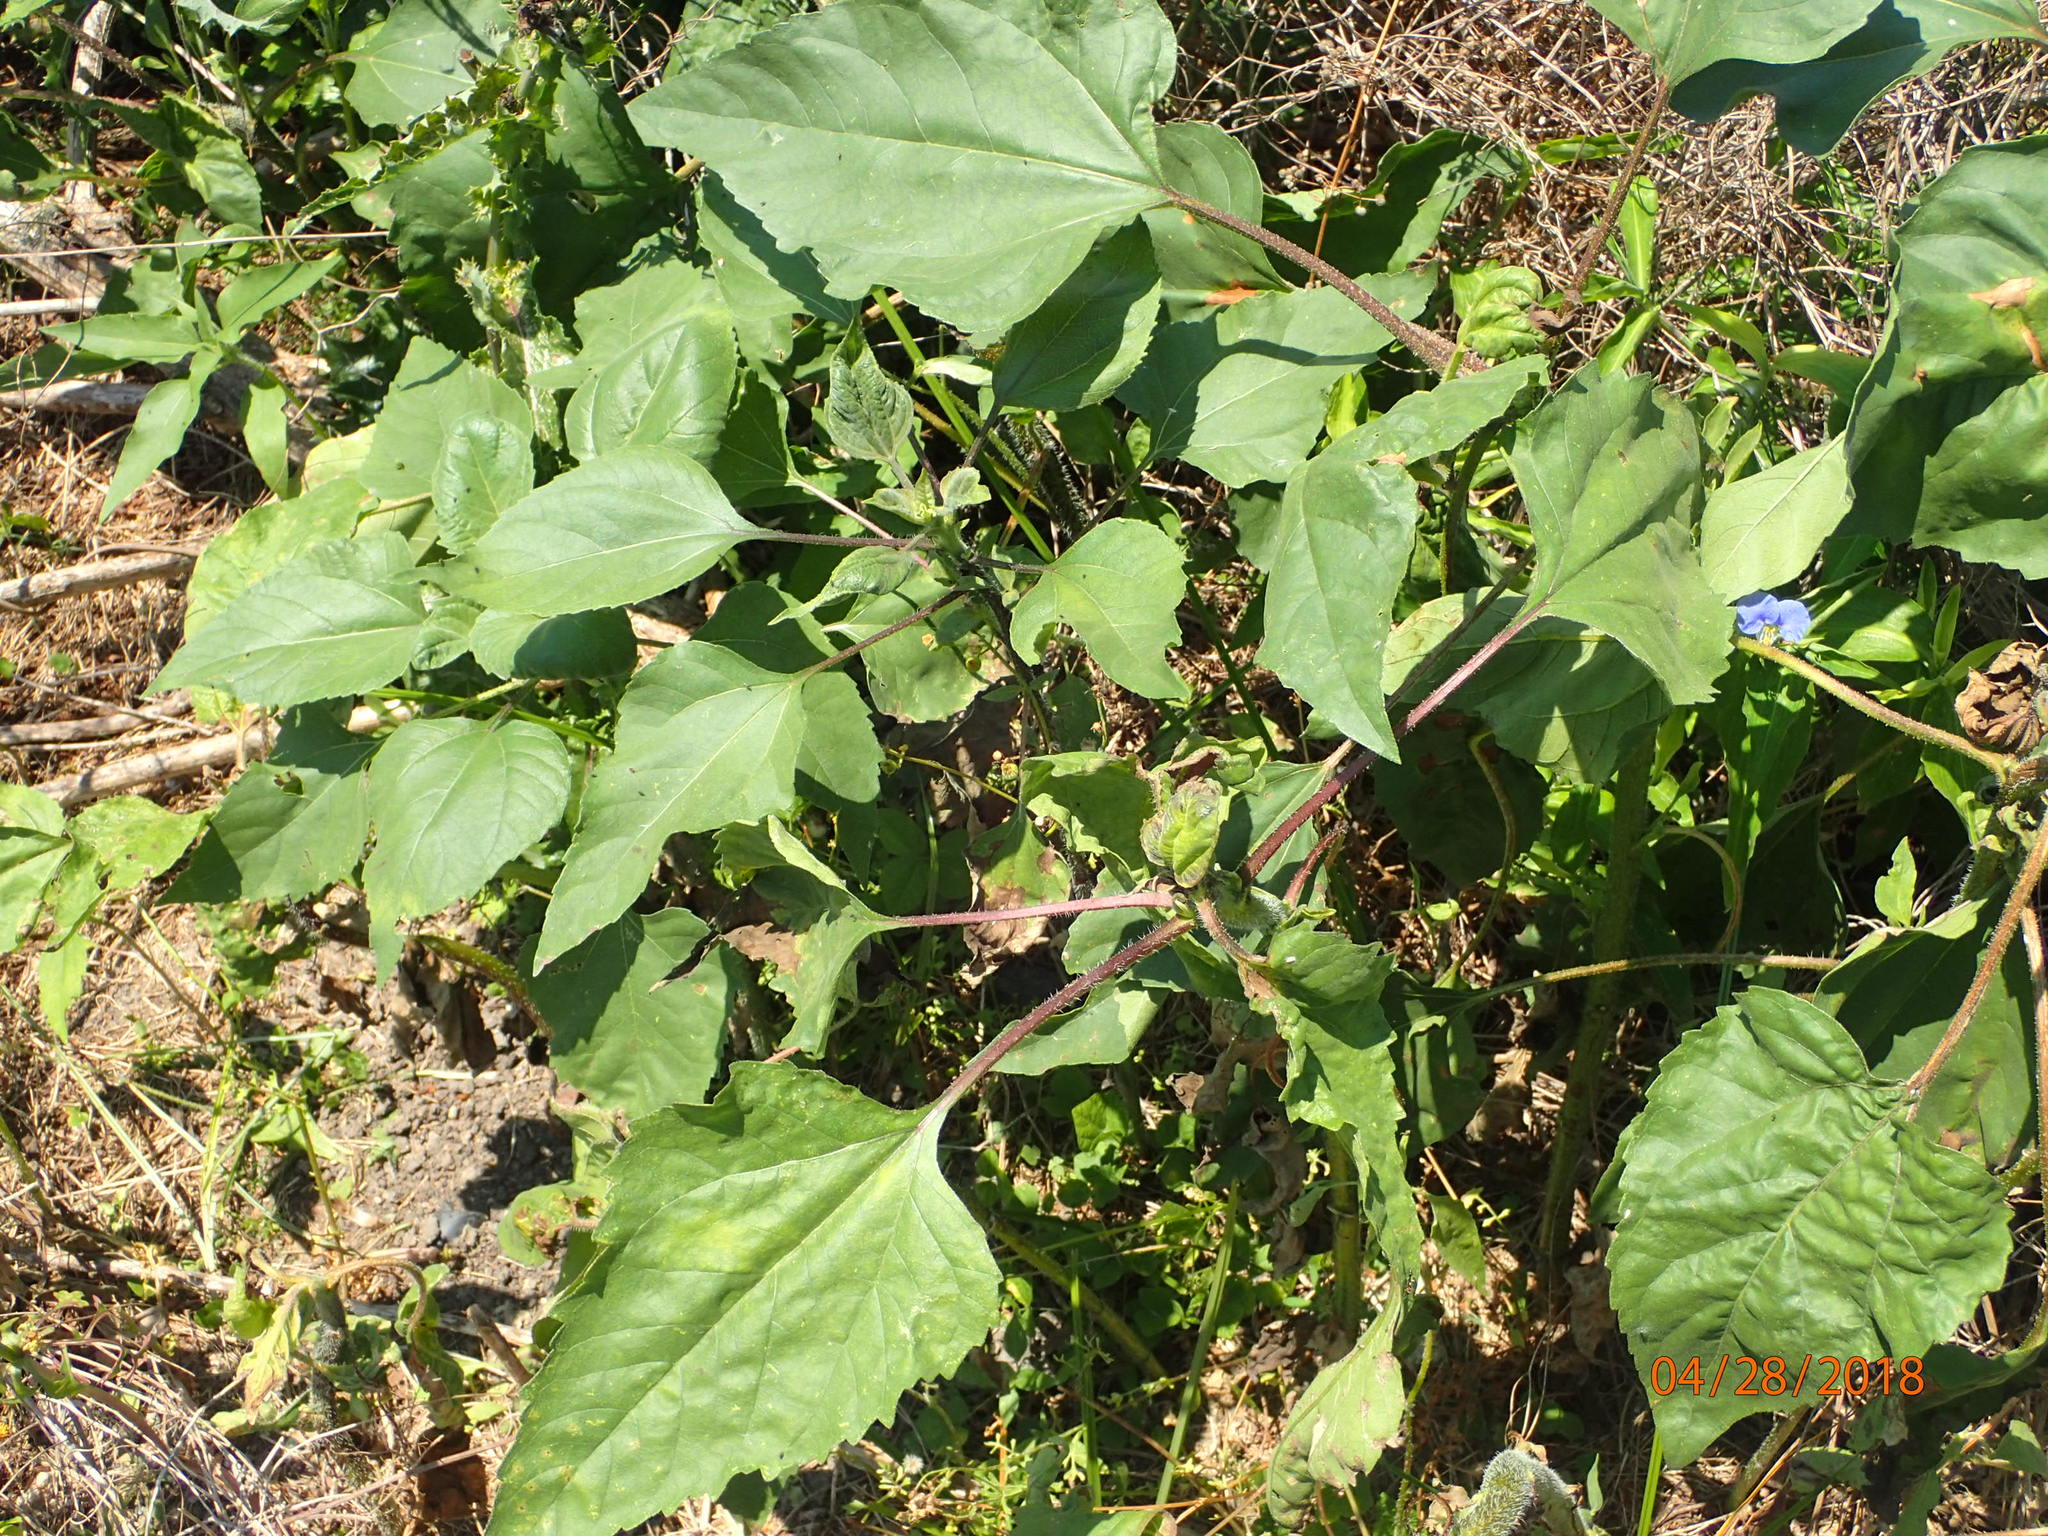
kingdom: Plantae
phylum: Tracheophyta
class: Magnoliopsida
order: Asterales
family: Asteraceae
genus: Helianthus
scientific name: Helianthus annuus
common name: Sunflower
